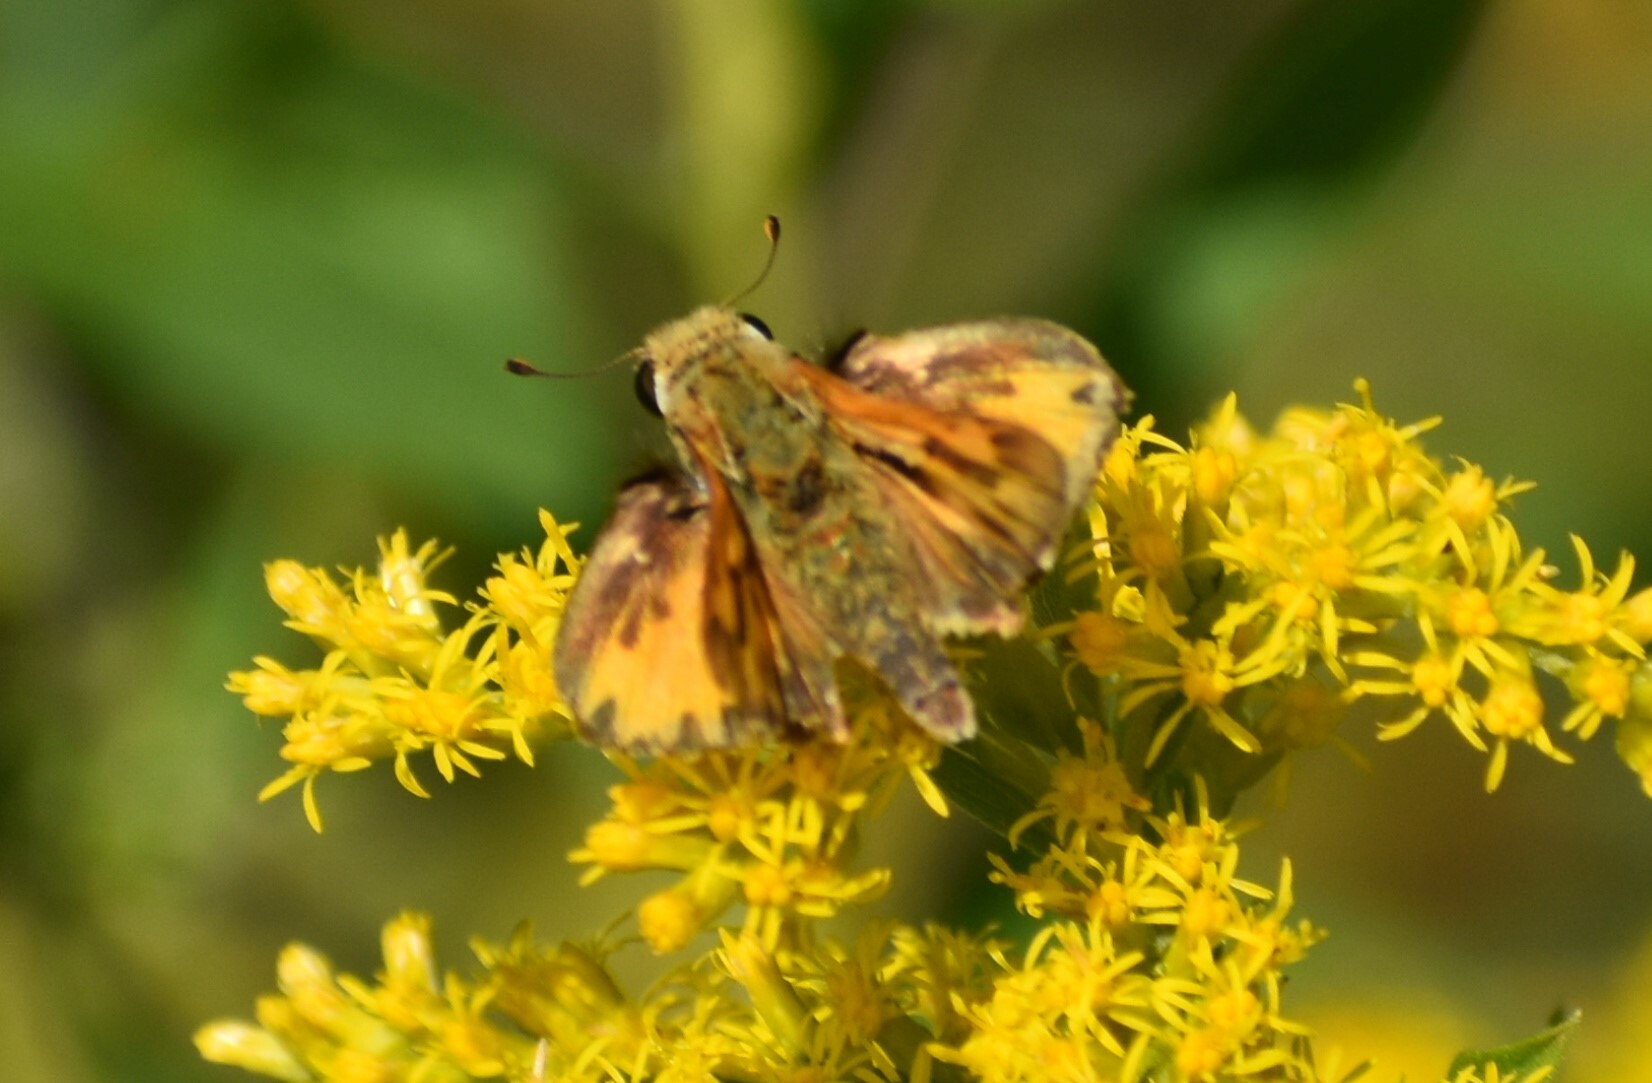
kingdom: Animalia
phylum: Arthropoda
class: Insecta
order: Lepidoptera
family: Hesperiidae
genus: Hylephila
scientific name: Hylephila phyleus
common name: Fiery skipper
